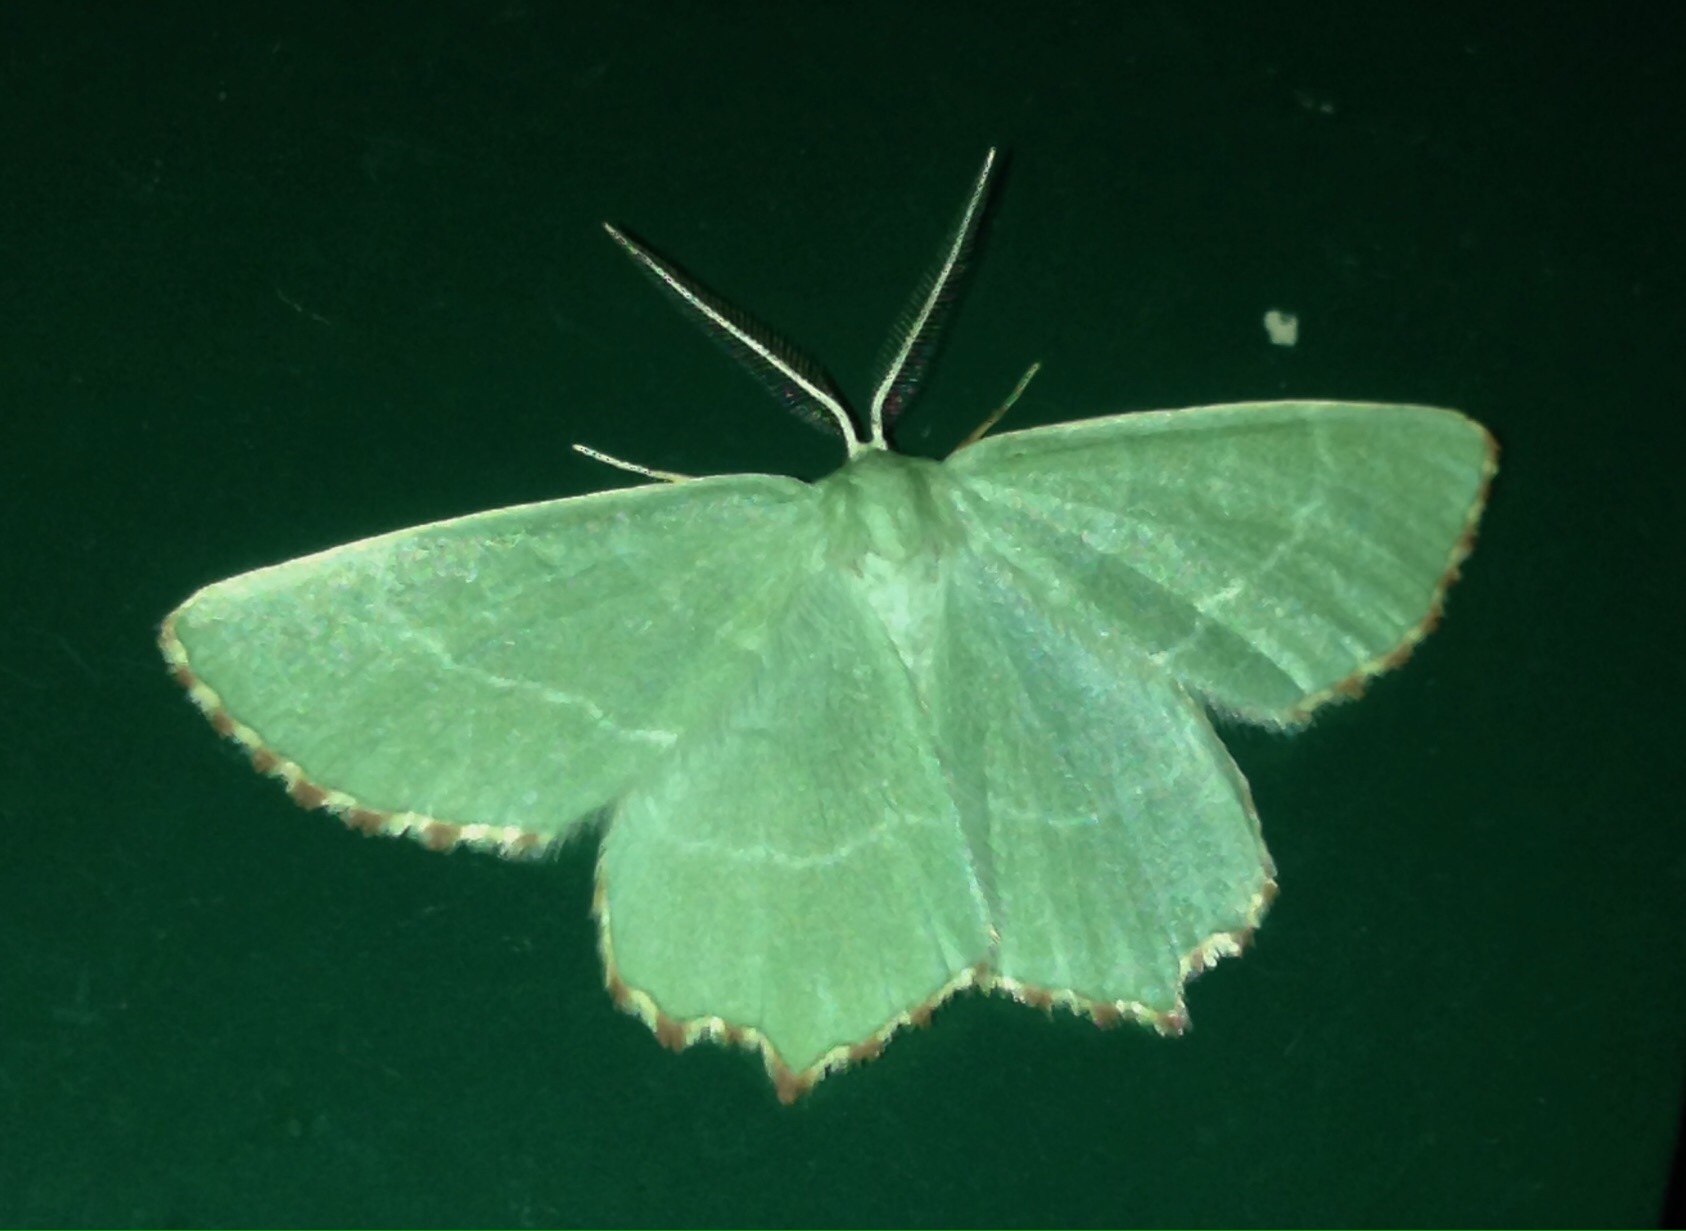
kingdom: Animalia
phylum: Arthropoda
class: Insecta
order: Lepidoptera
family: Geometridae
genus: Thalera
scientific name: Thalera fimbrialis
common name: Sussex emerald
